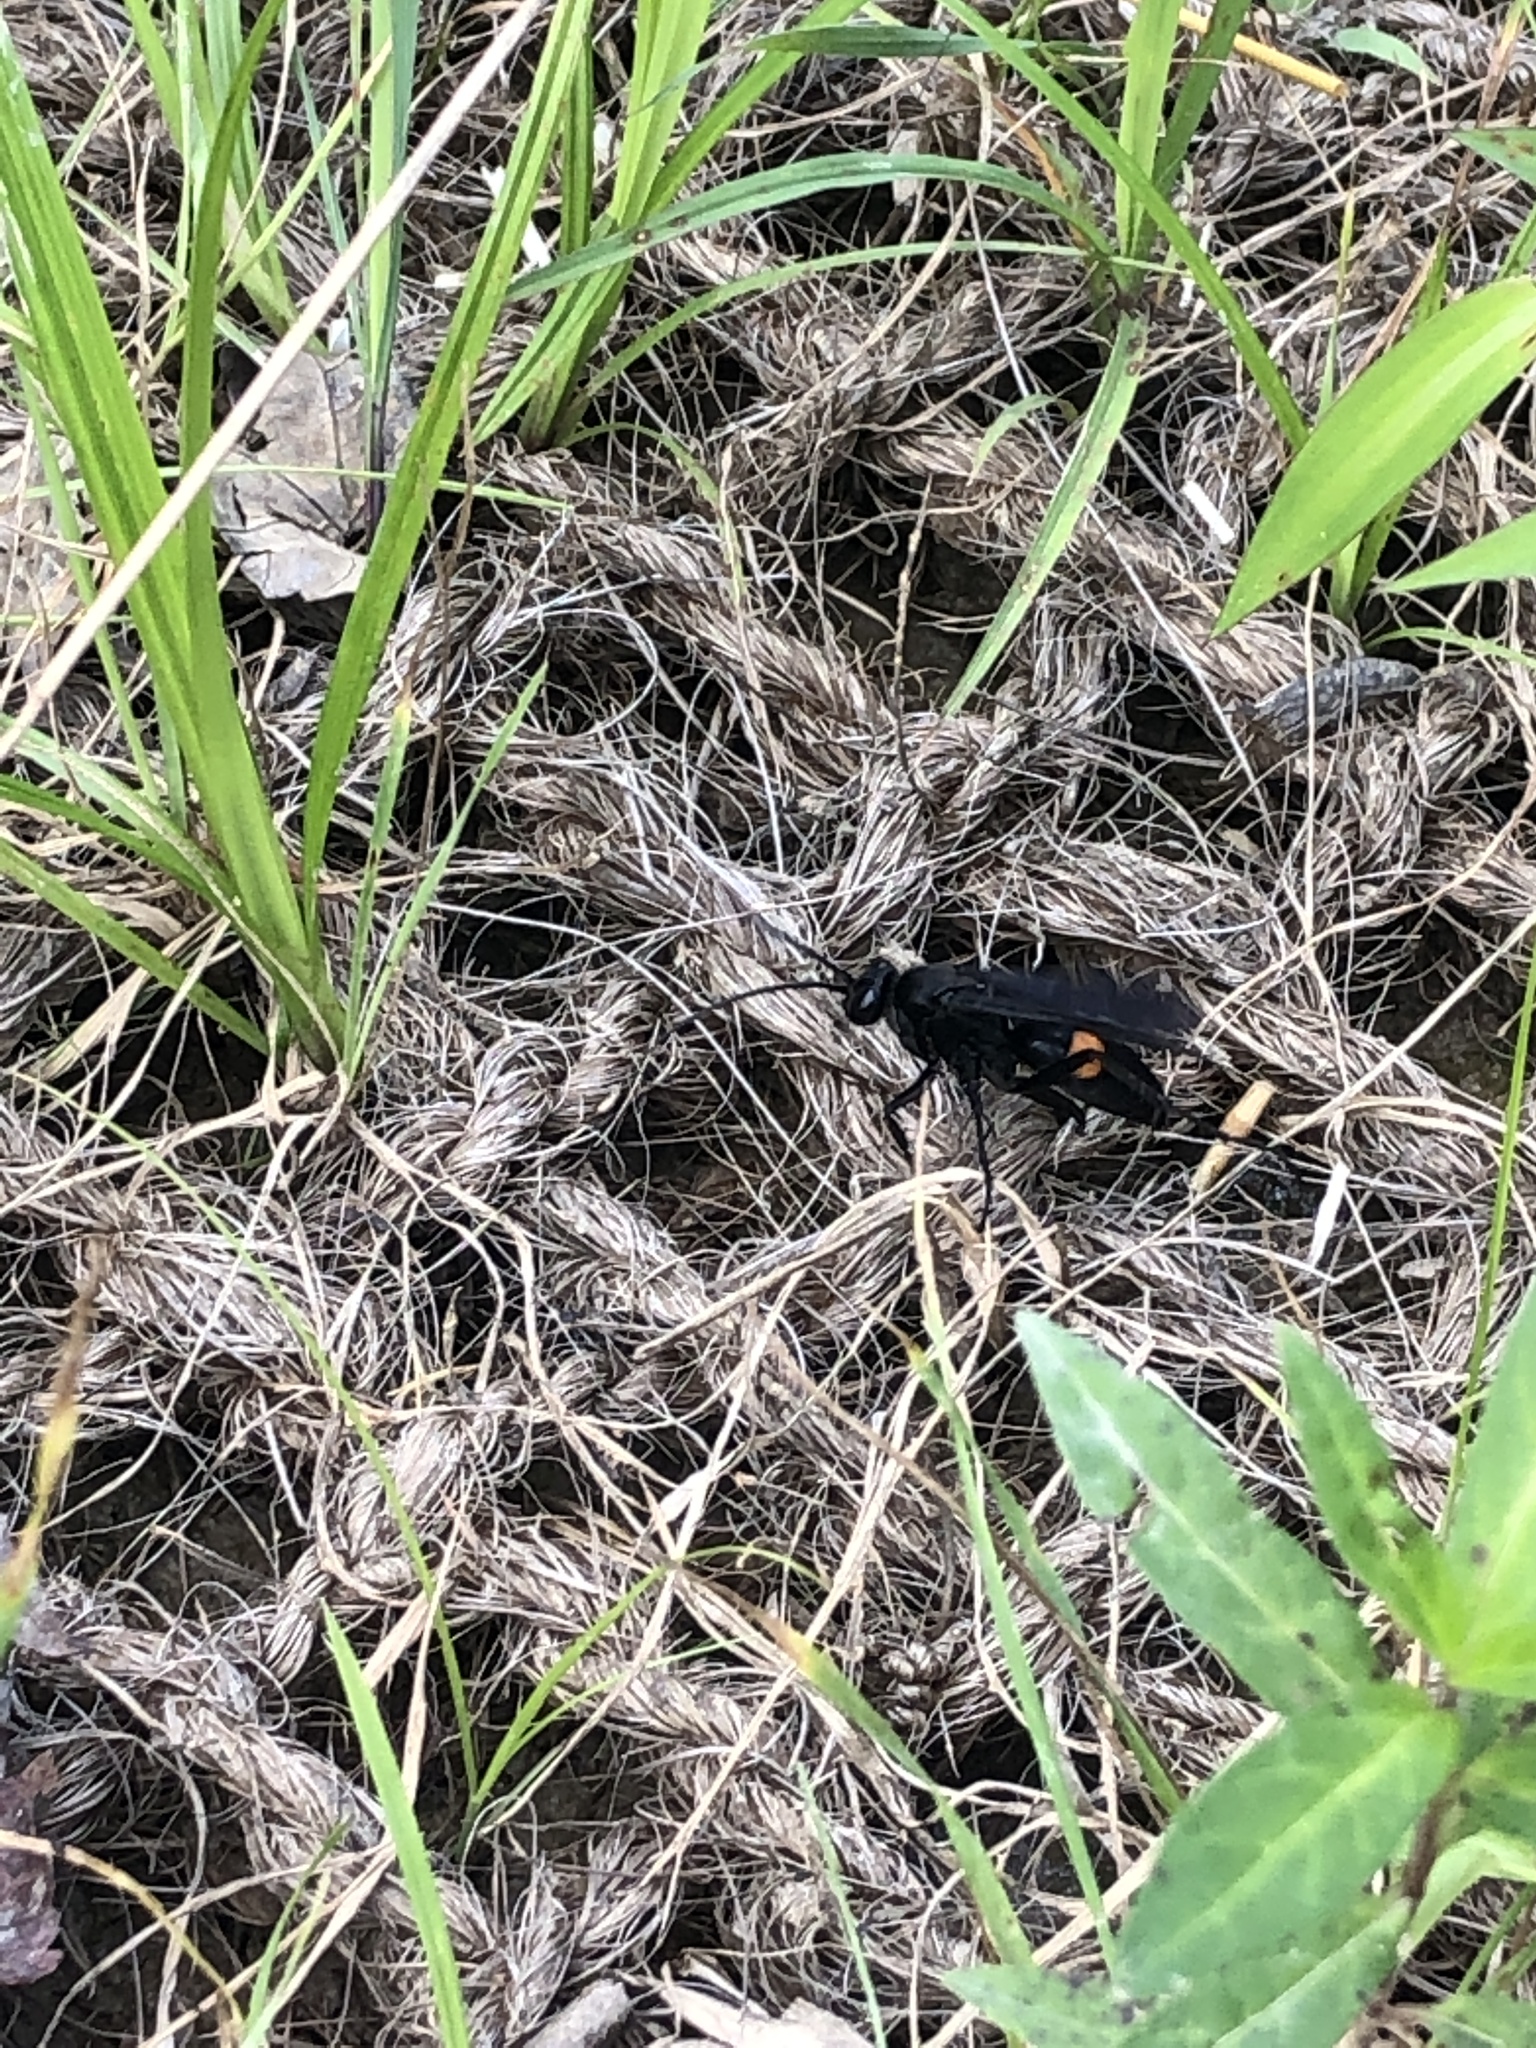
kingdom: Animalia
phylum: Arthropoda
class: Insecta
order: Diptera
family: Mydidae
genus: Mydas
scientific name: Mydas clavatus
